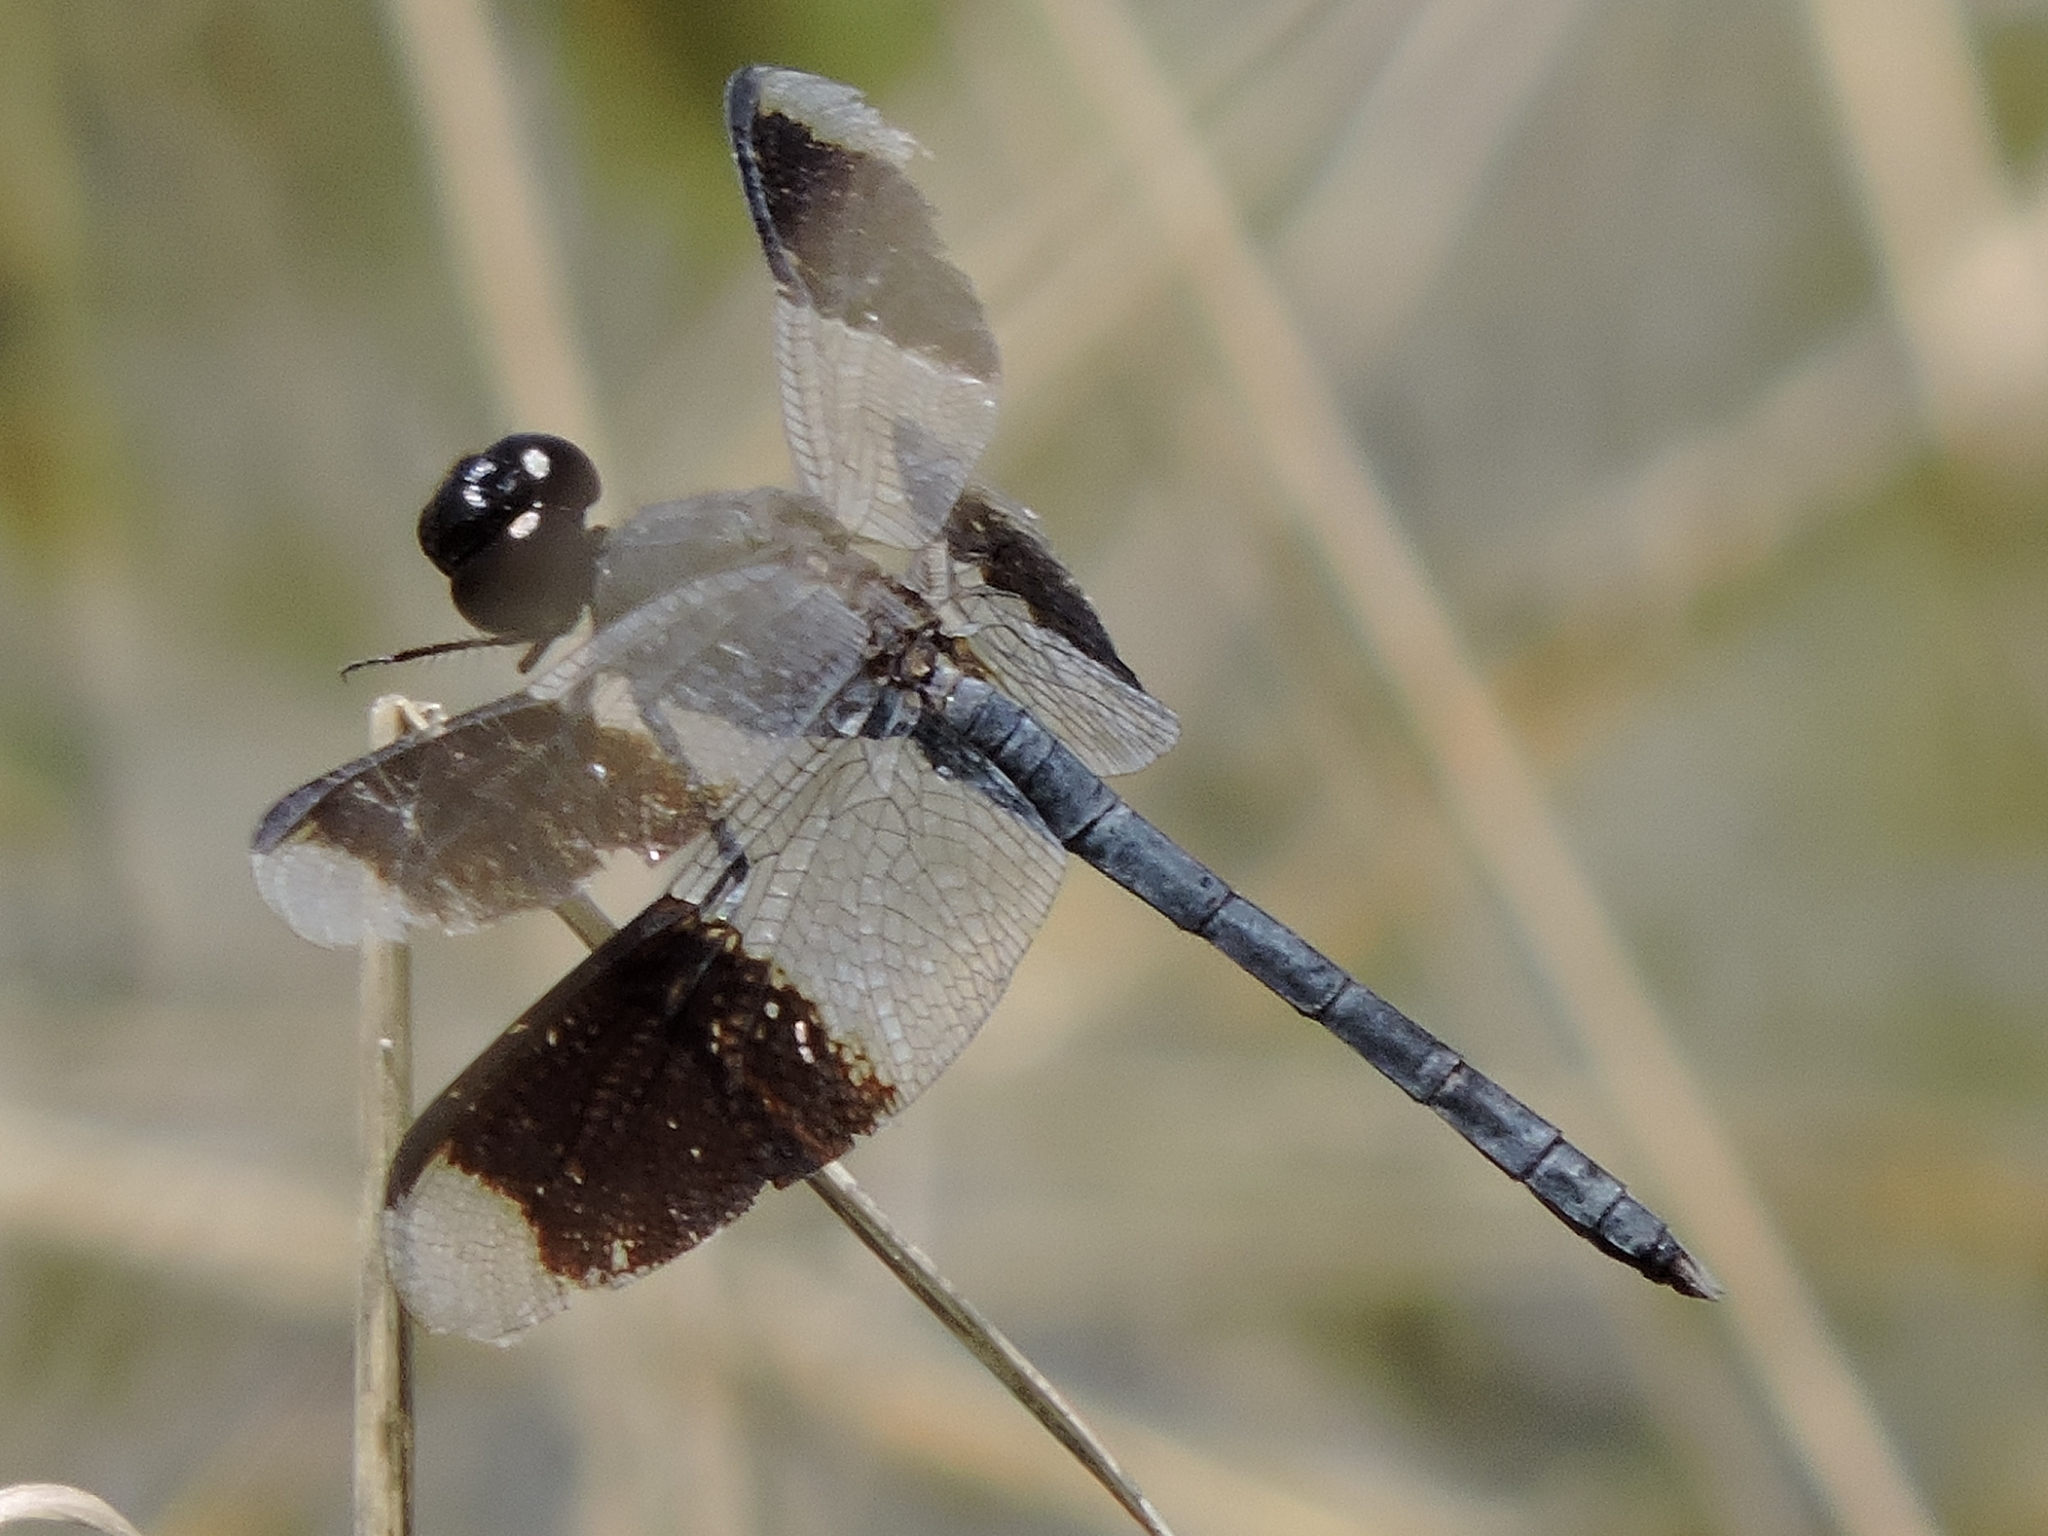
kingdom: Animalia
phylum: Arthropoda
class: Insecta
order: Odonata
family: Libellulidae
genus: Erythrodiplax
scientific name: Erythrodiplax umbrata
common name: Band-winged dragonlet
